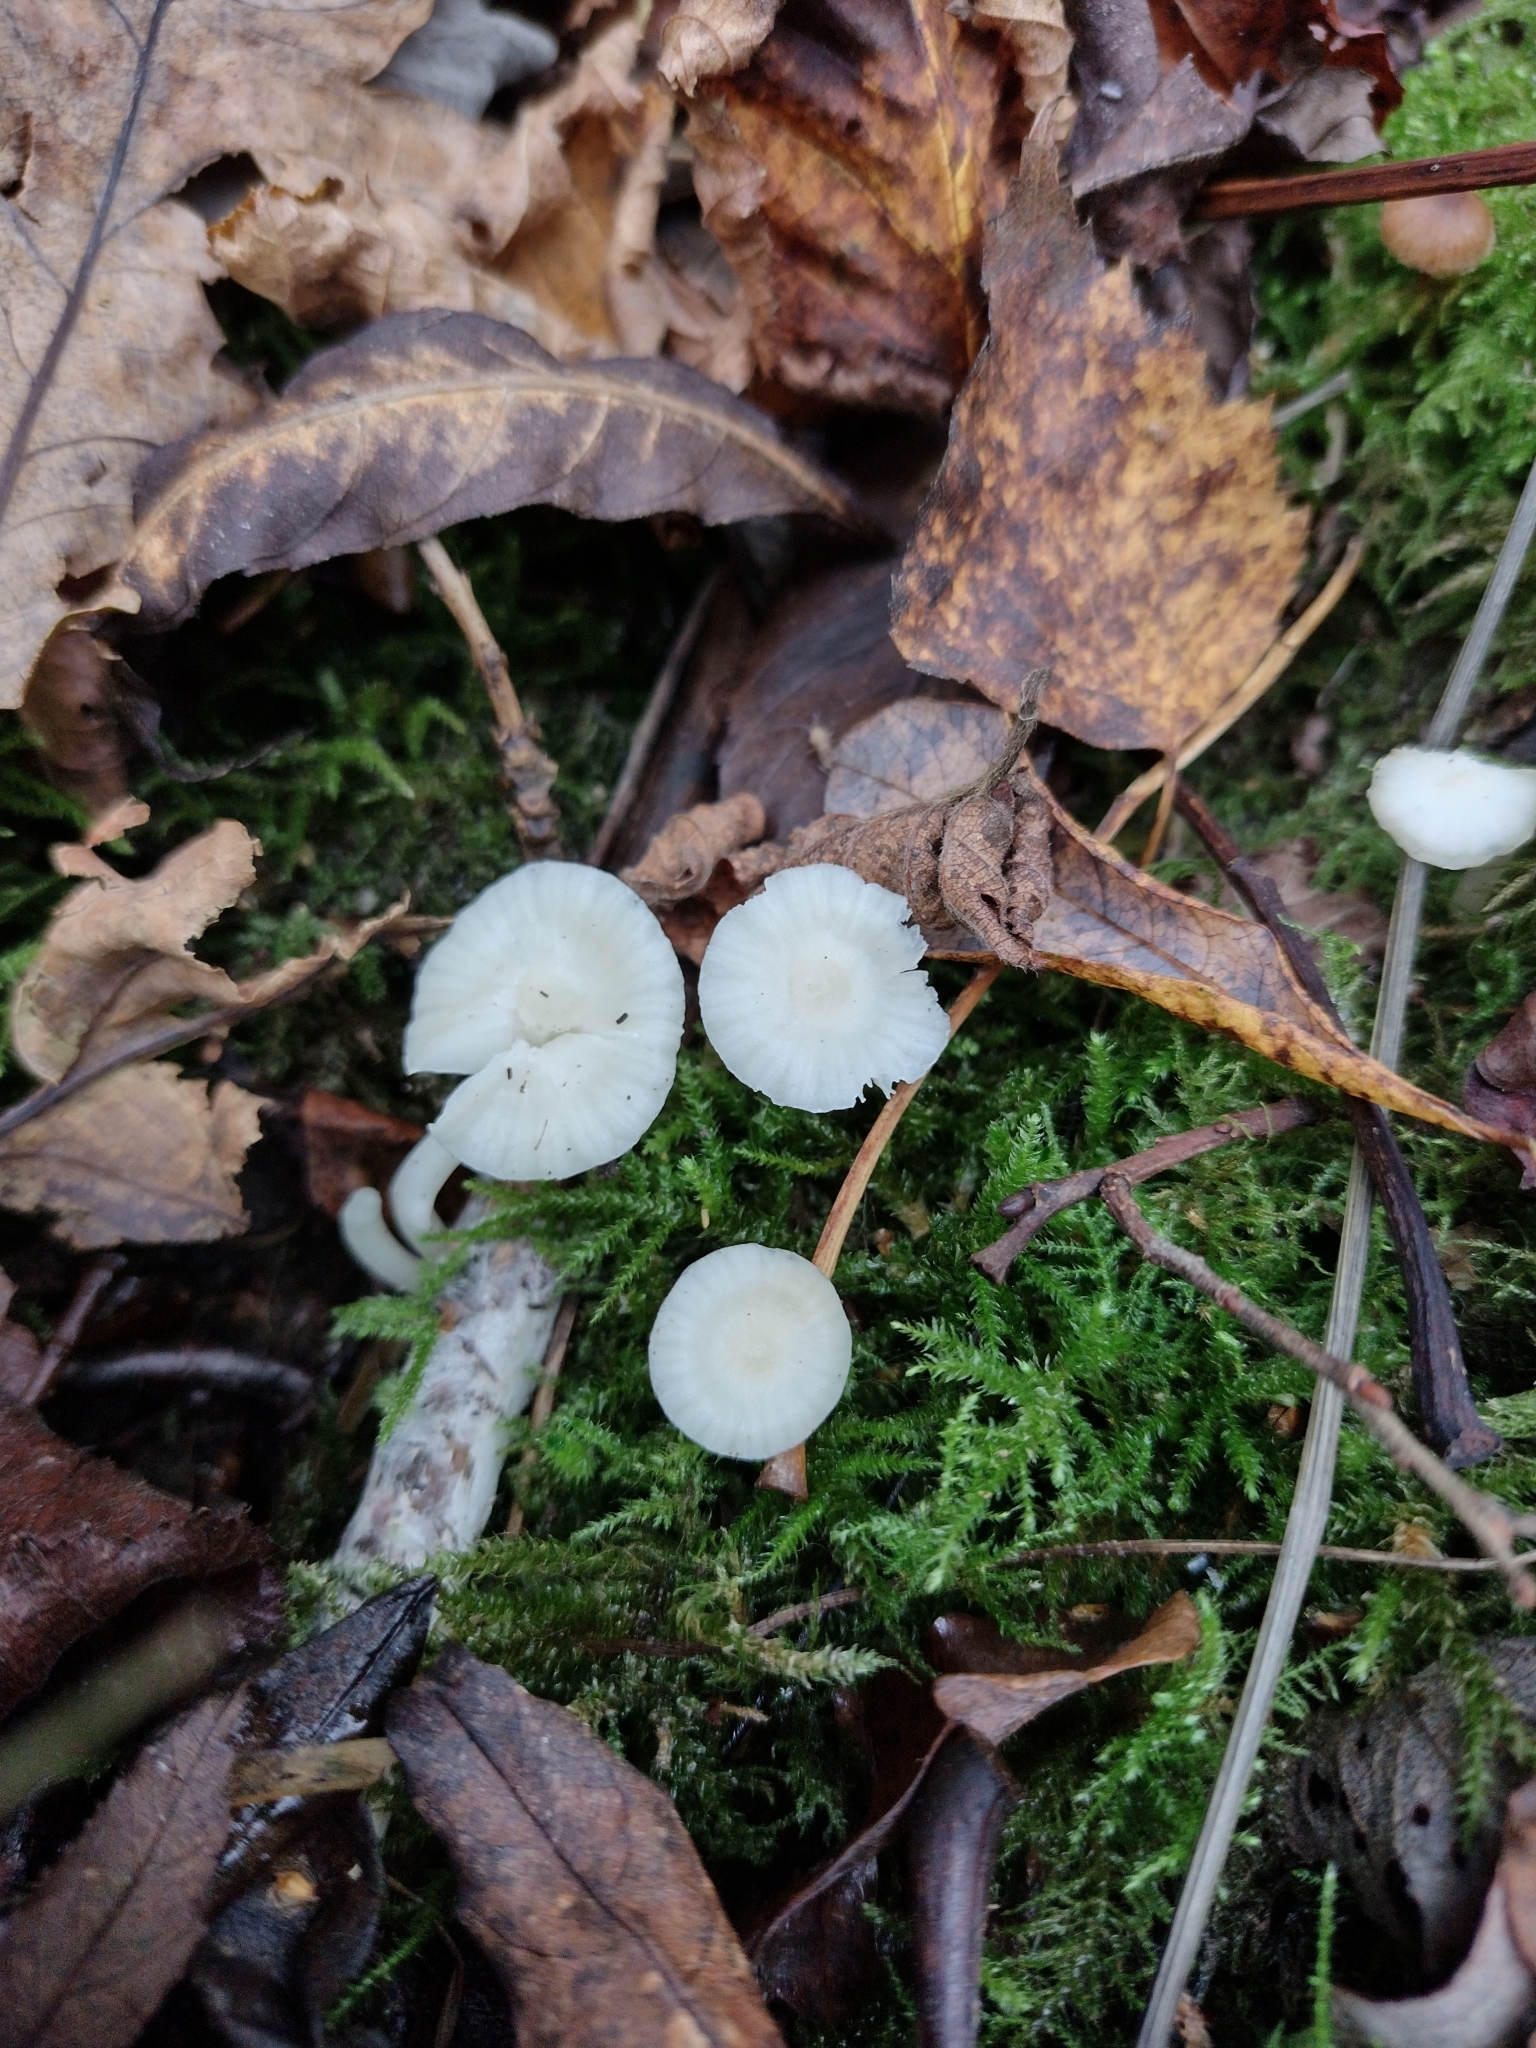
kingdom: Fungi
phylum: Basidiomycota
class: Agaricomycetes
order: Agaricales
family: Hygrophoraceae
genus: Cuphophyllus
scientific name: Cuphophyllus virgineus
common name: Snowy waxcap
